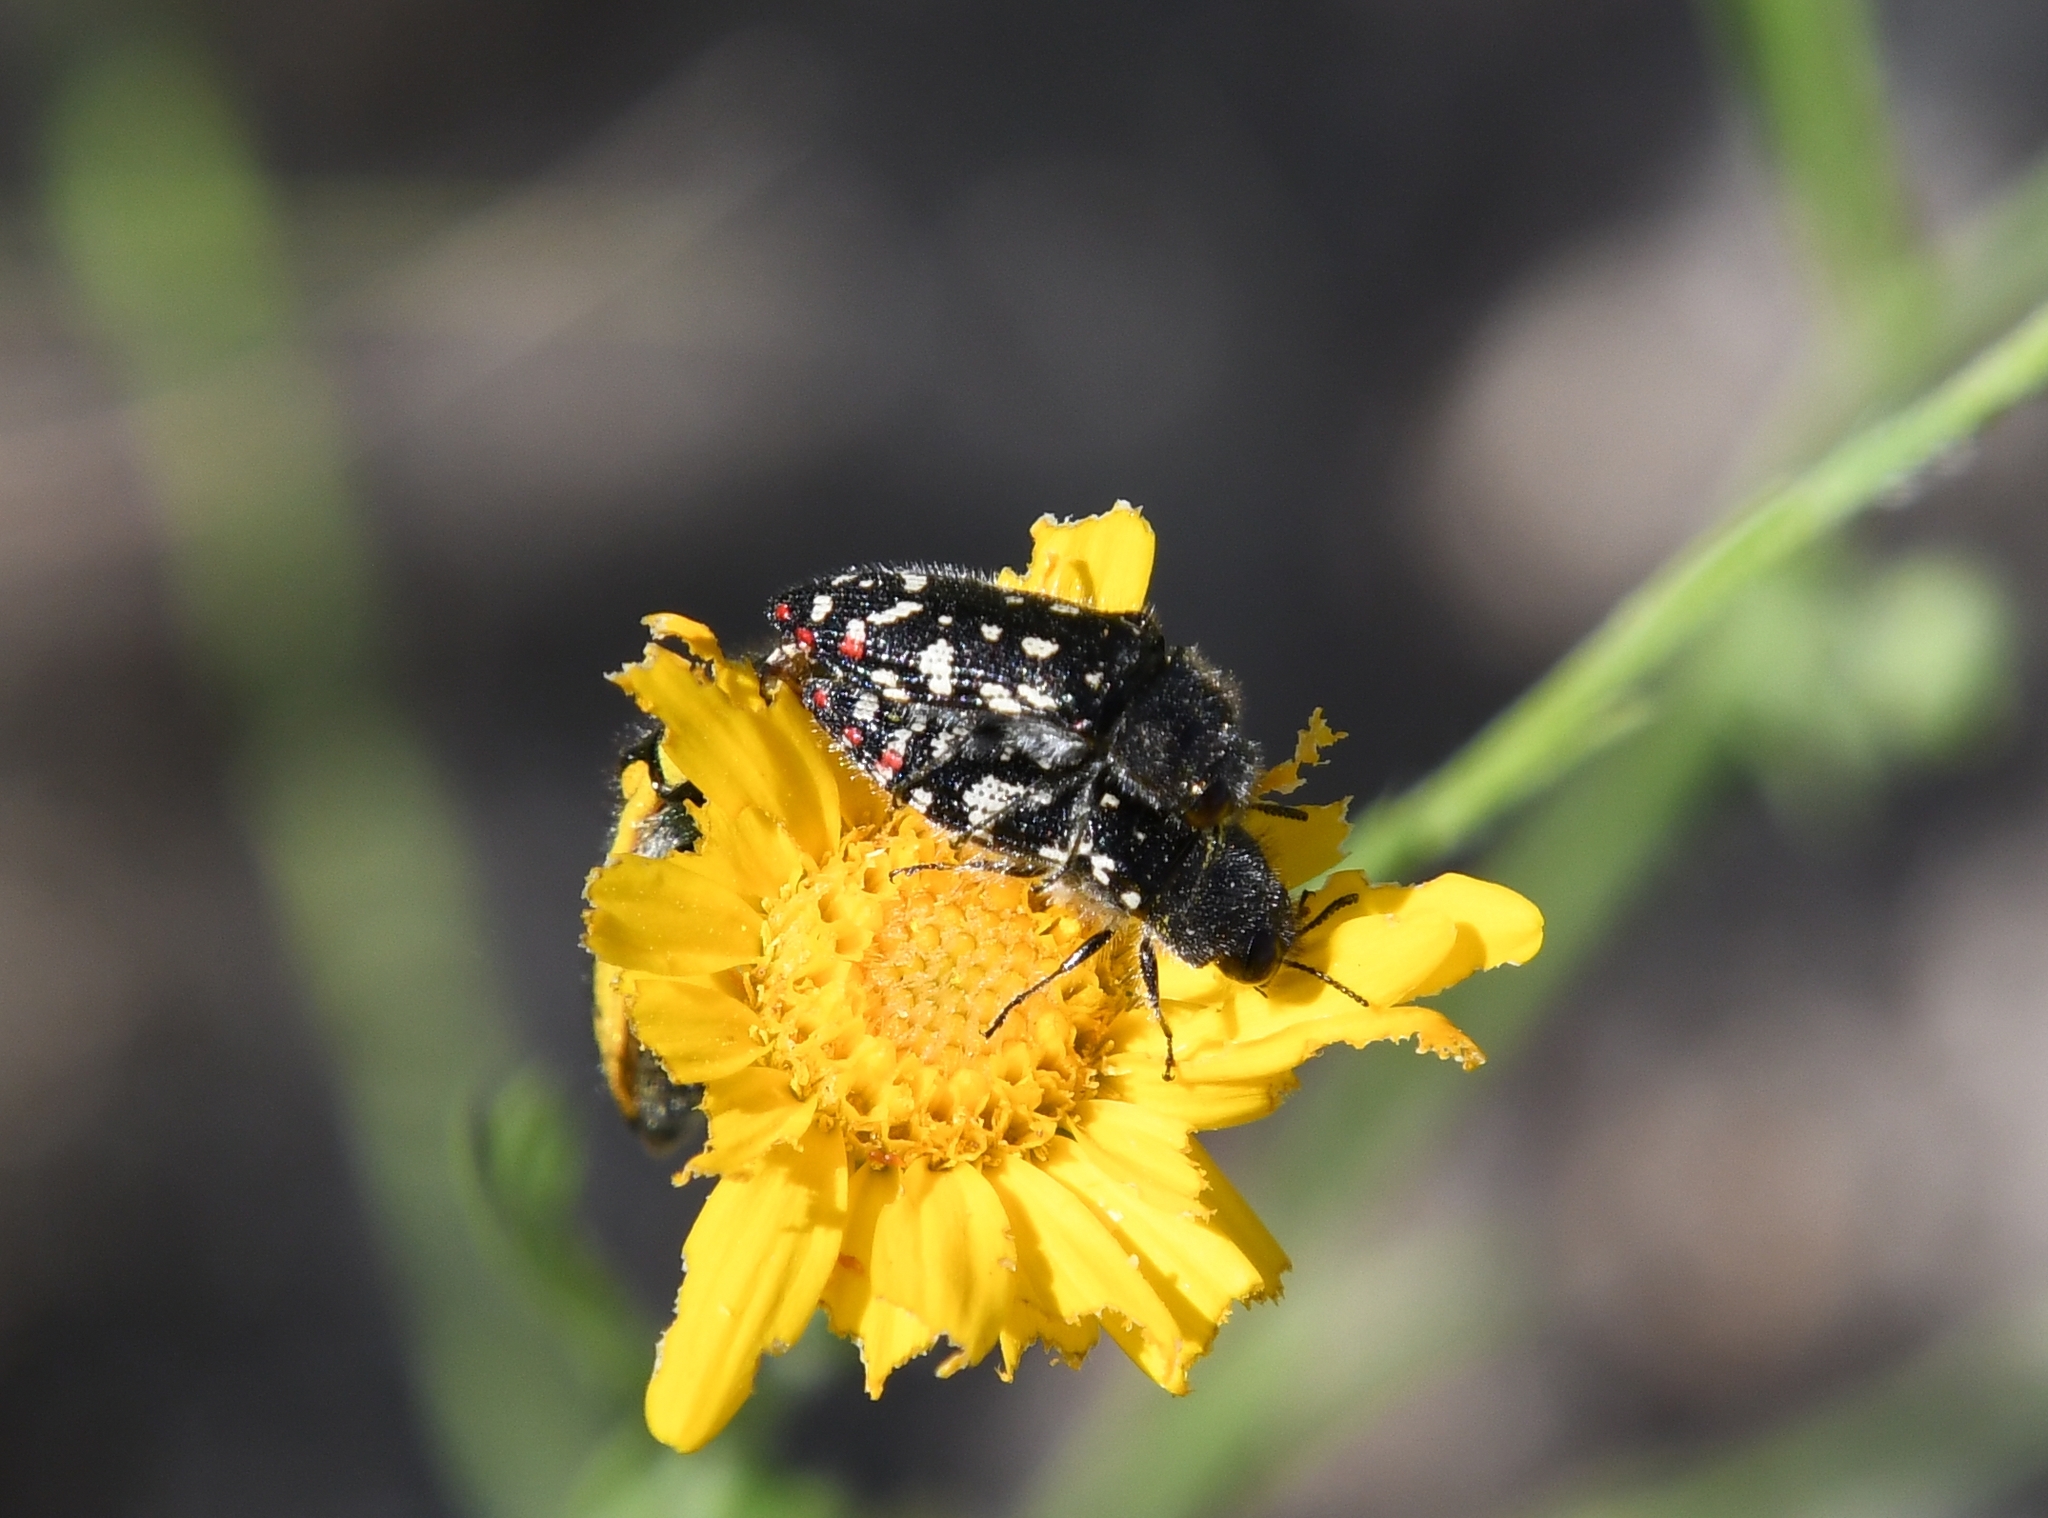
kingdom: Animalia
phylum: Arthropoda
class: Insecta
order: Coleoptera
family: Buprestidae
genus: Acmaeodera
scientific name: Acmaeodera rubronotata
